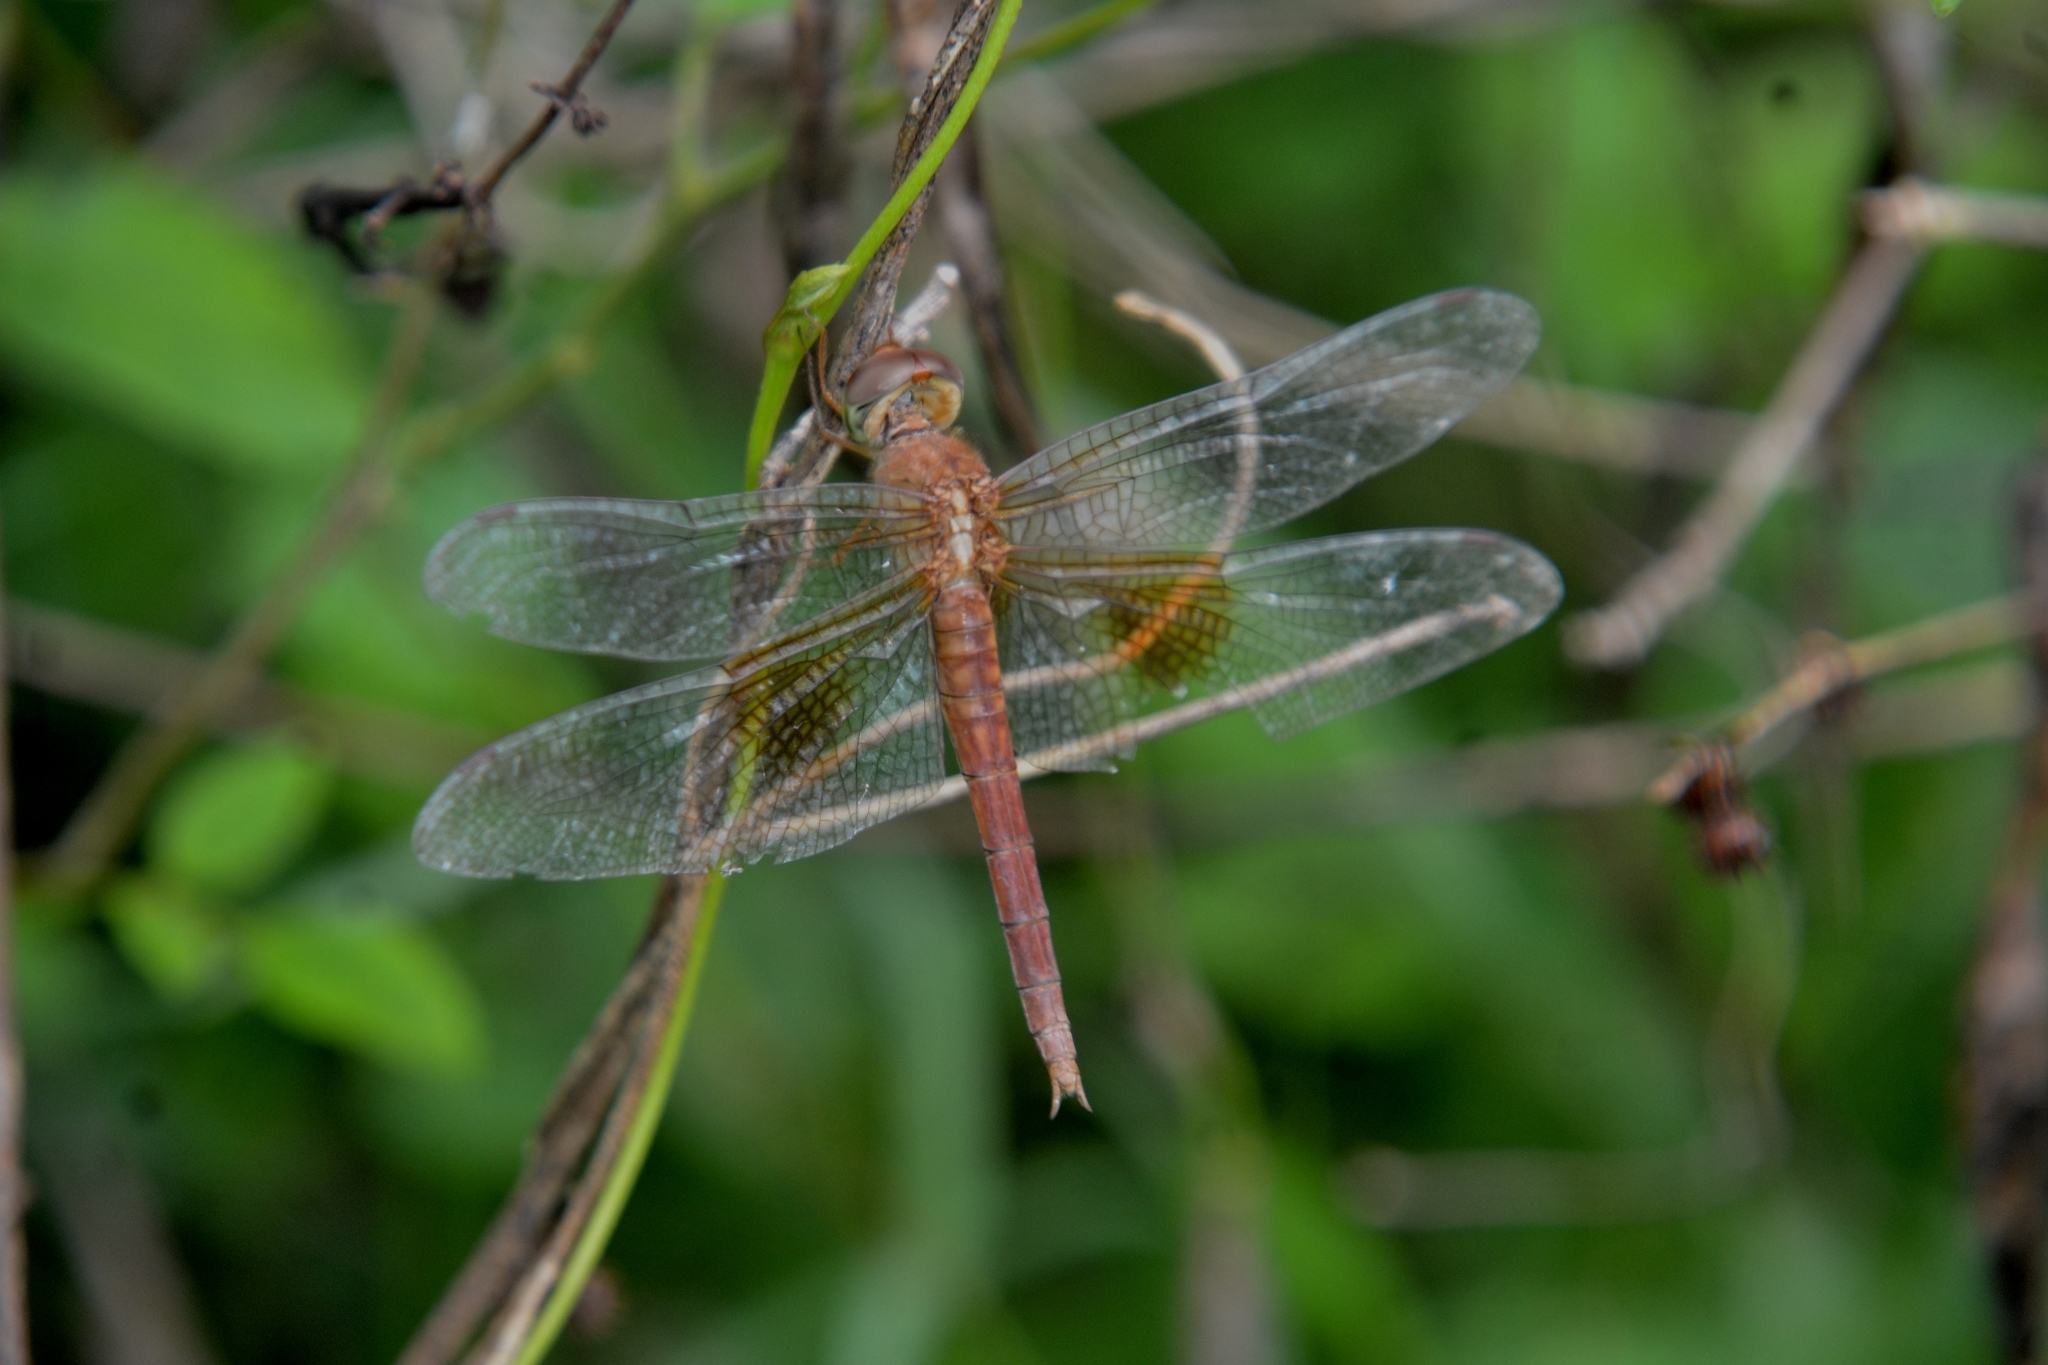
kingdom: Animalia
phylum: Arthropoda
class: Insecta
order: Odonata
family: Libellulidae
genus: Tholymis
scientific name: Tholymis tillarga
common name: Coral-tailed cloud wing
